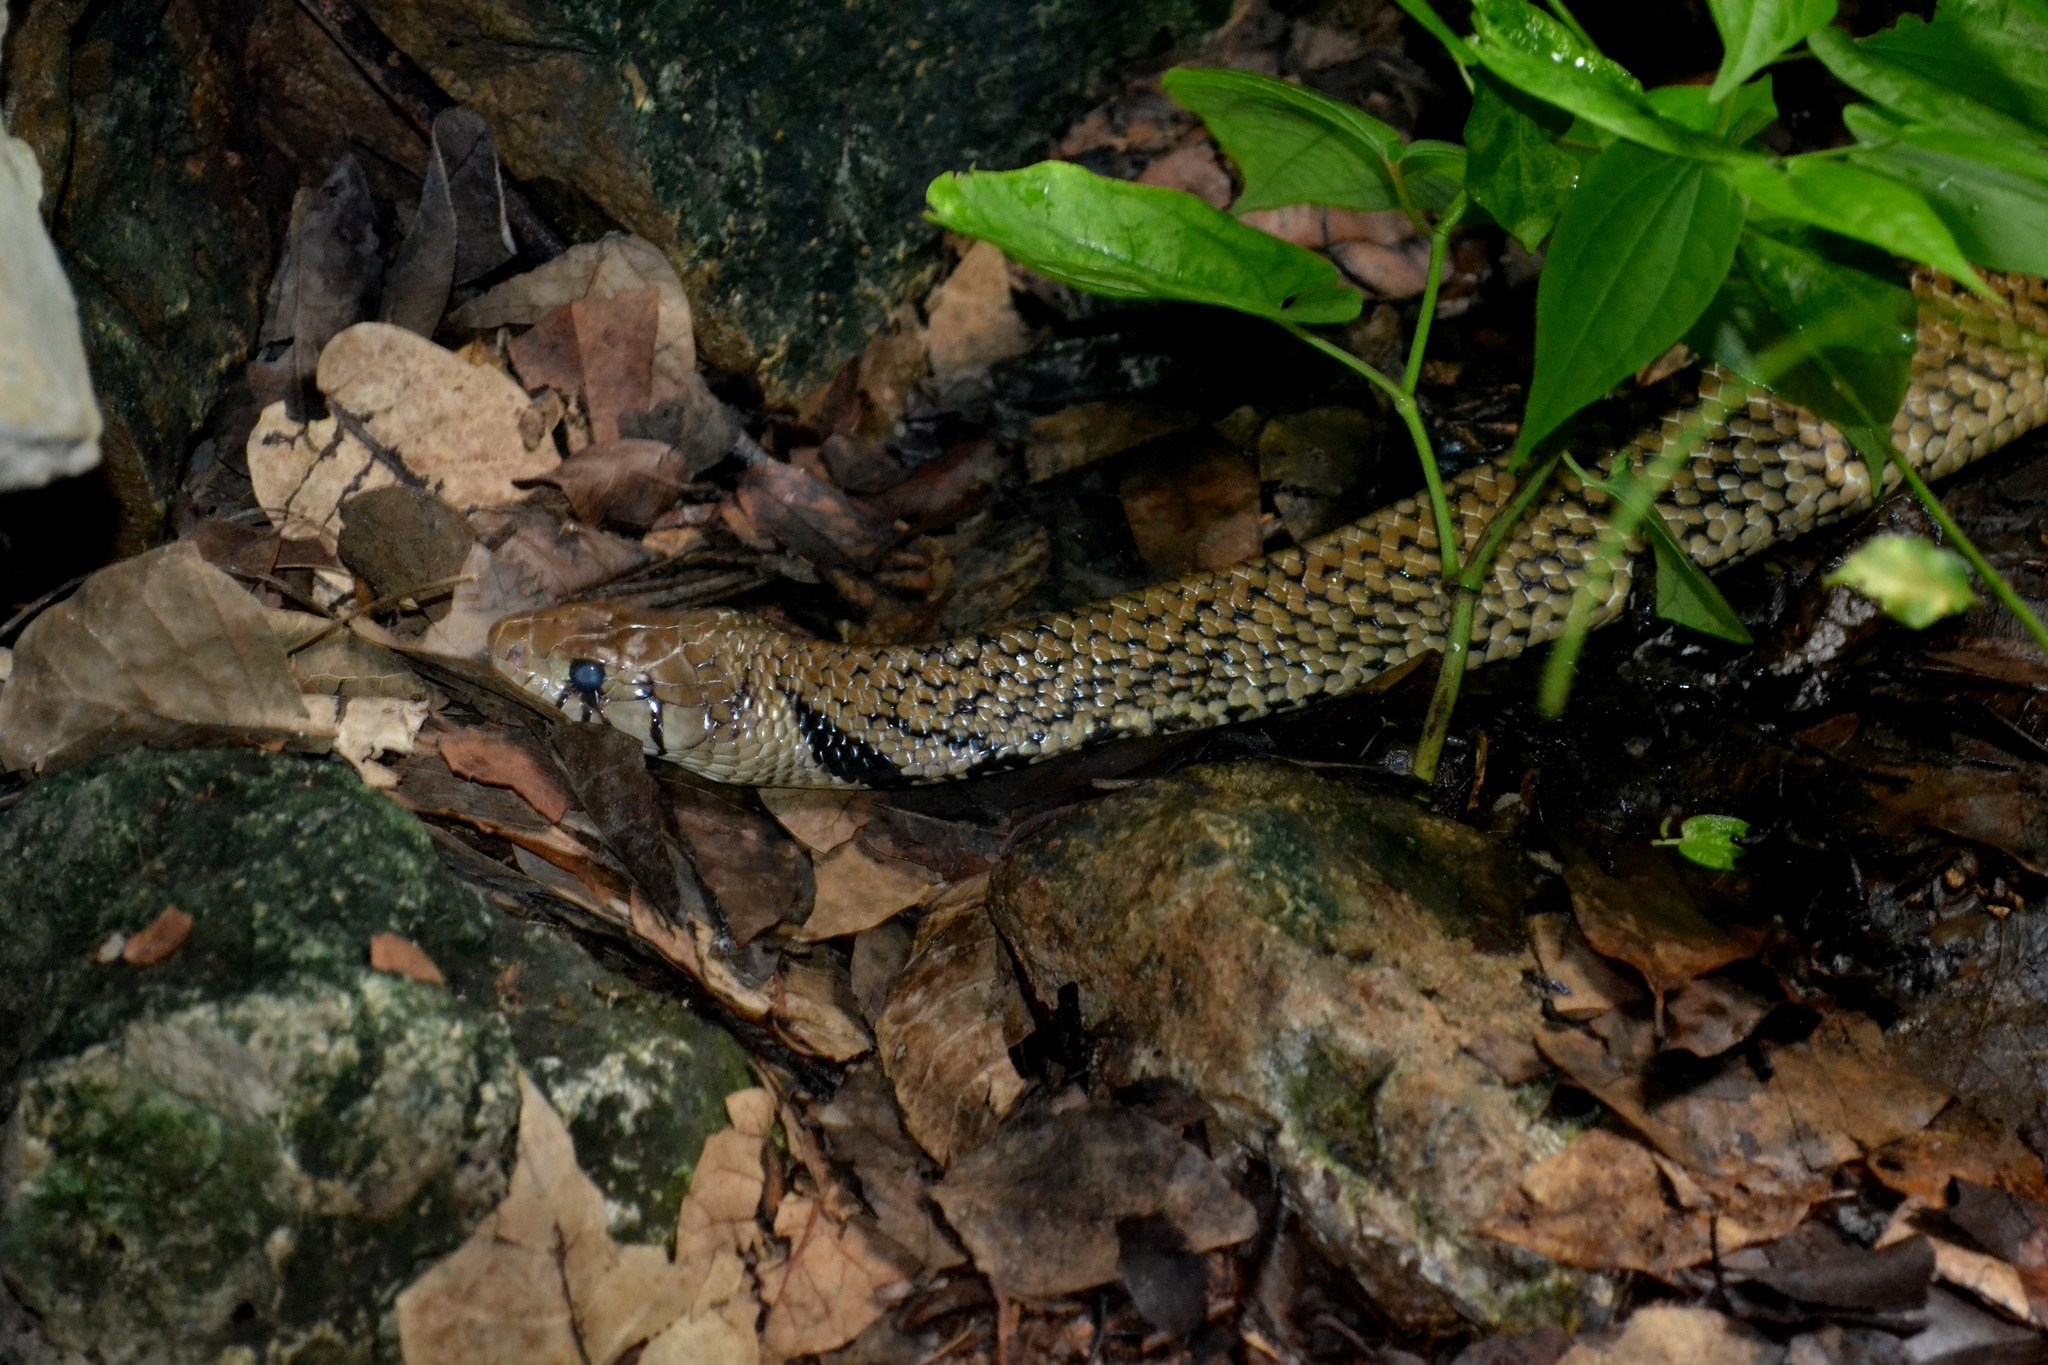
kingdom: Animalia
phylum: Chordata
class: Squamata
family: Colubridae
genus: Drymarchon
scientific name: Drymarchon melanurus
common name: Central american indigo snake
